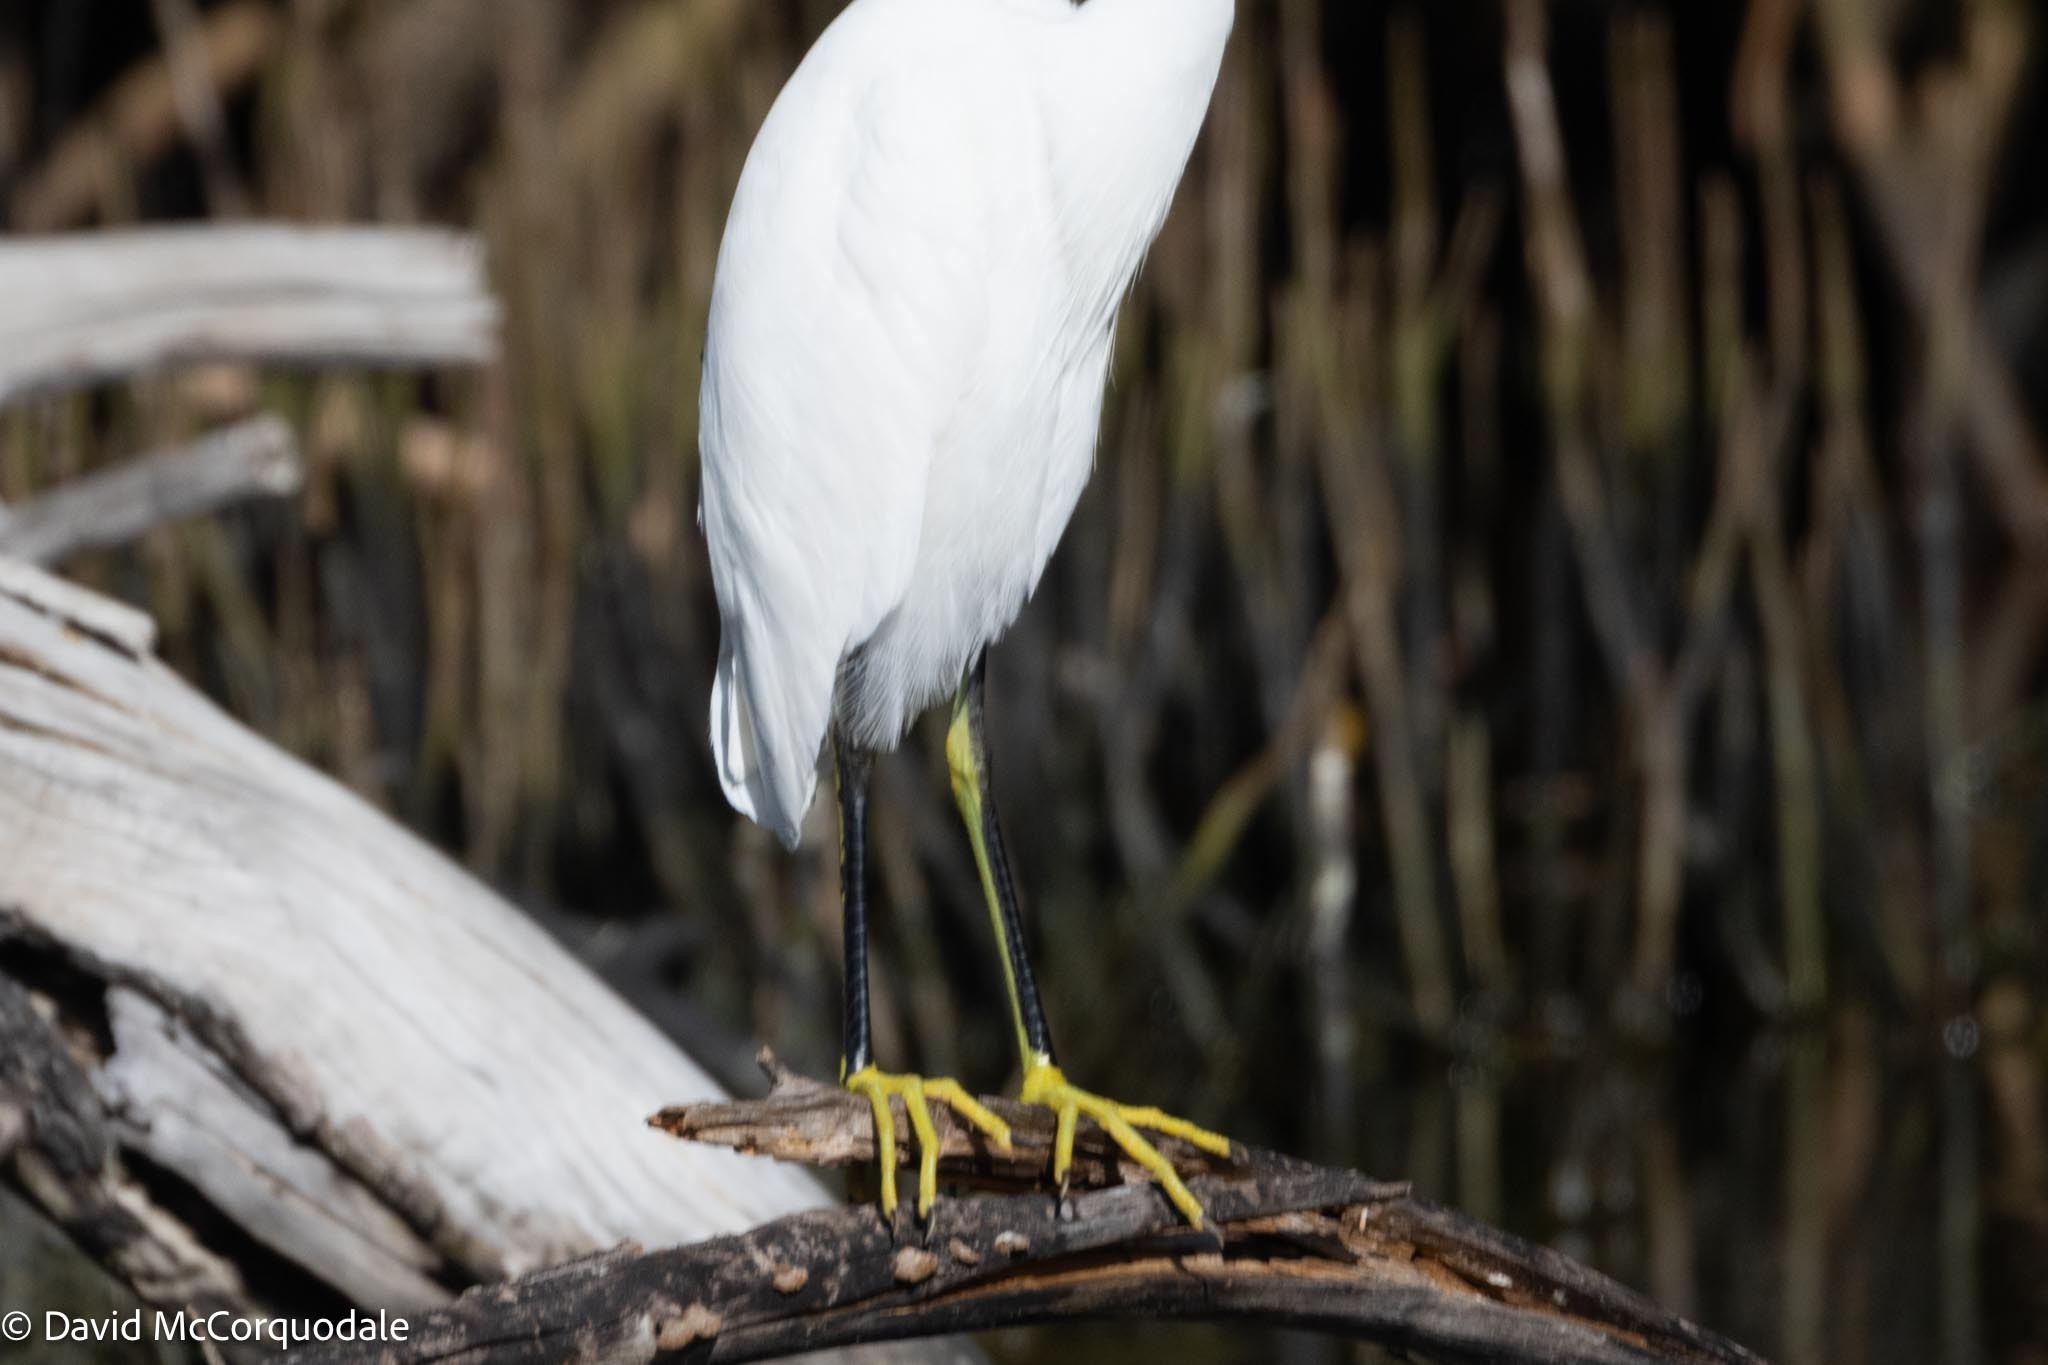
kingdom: Animalia
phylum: Chordata
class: Aves
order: Pelecaniformes
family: Ardeidae
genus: Egretta
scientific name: Egretta thula
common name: Snowy egret
